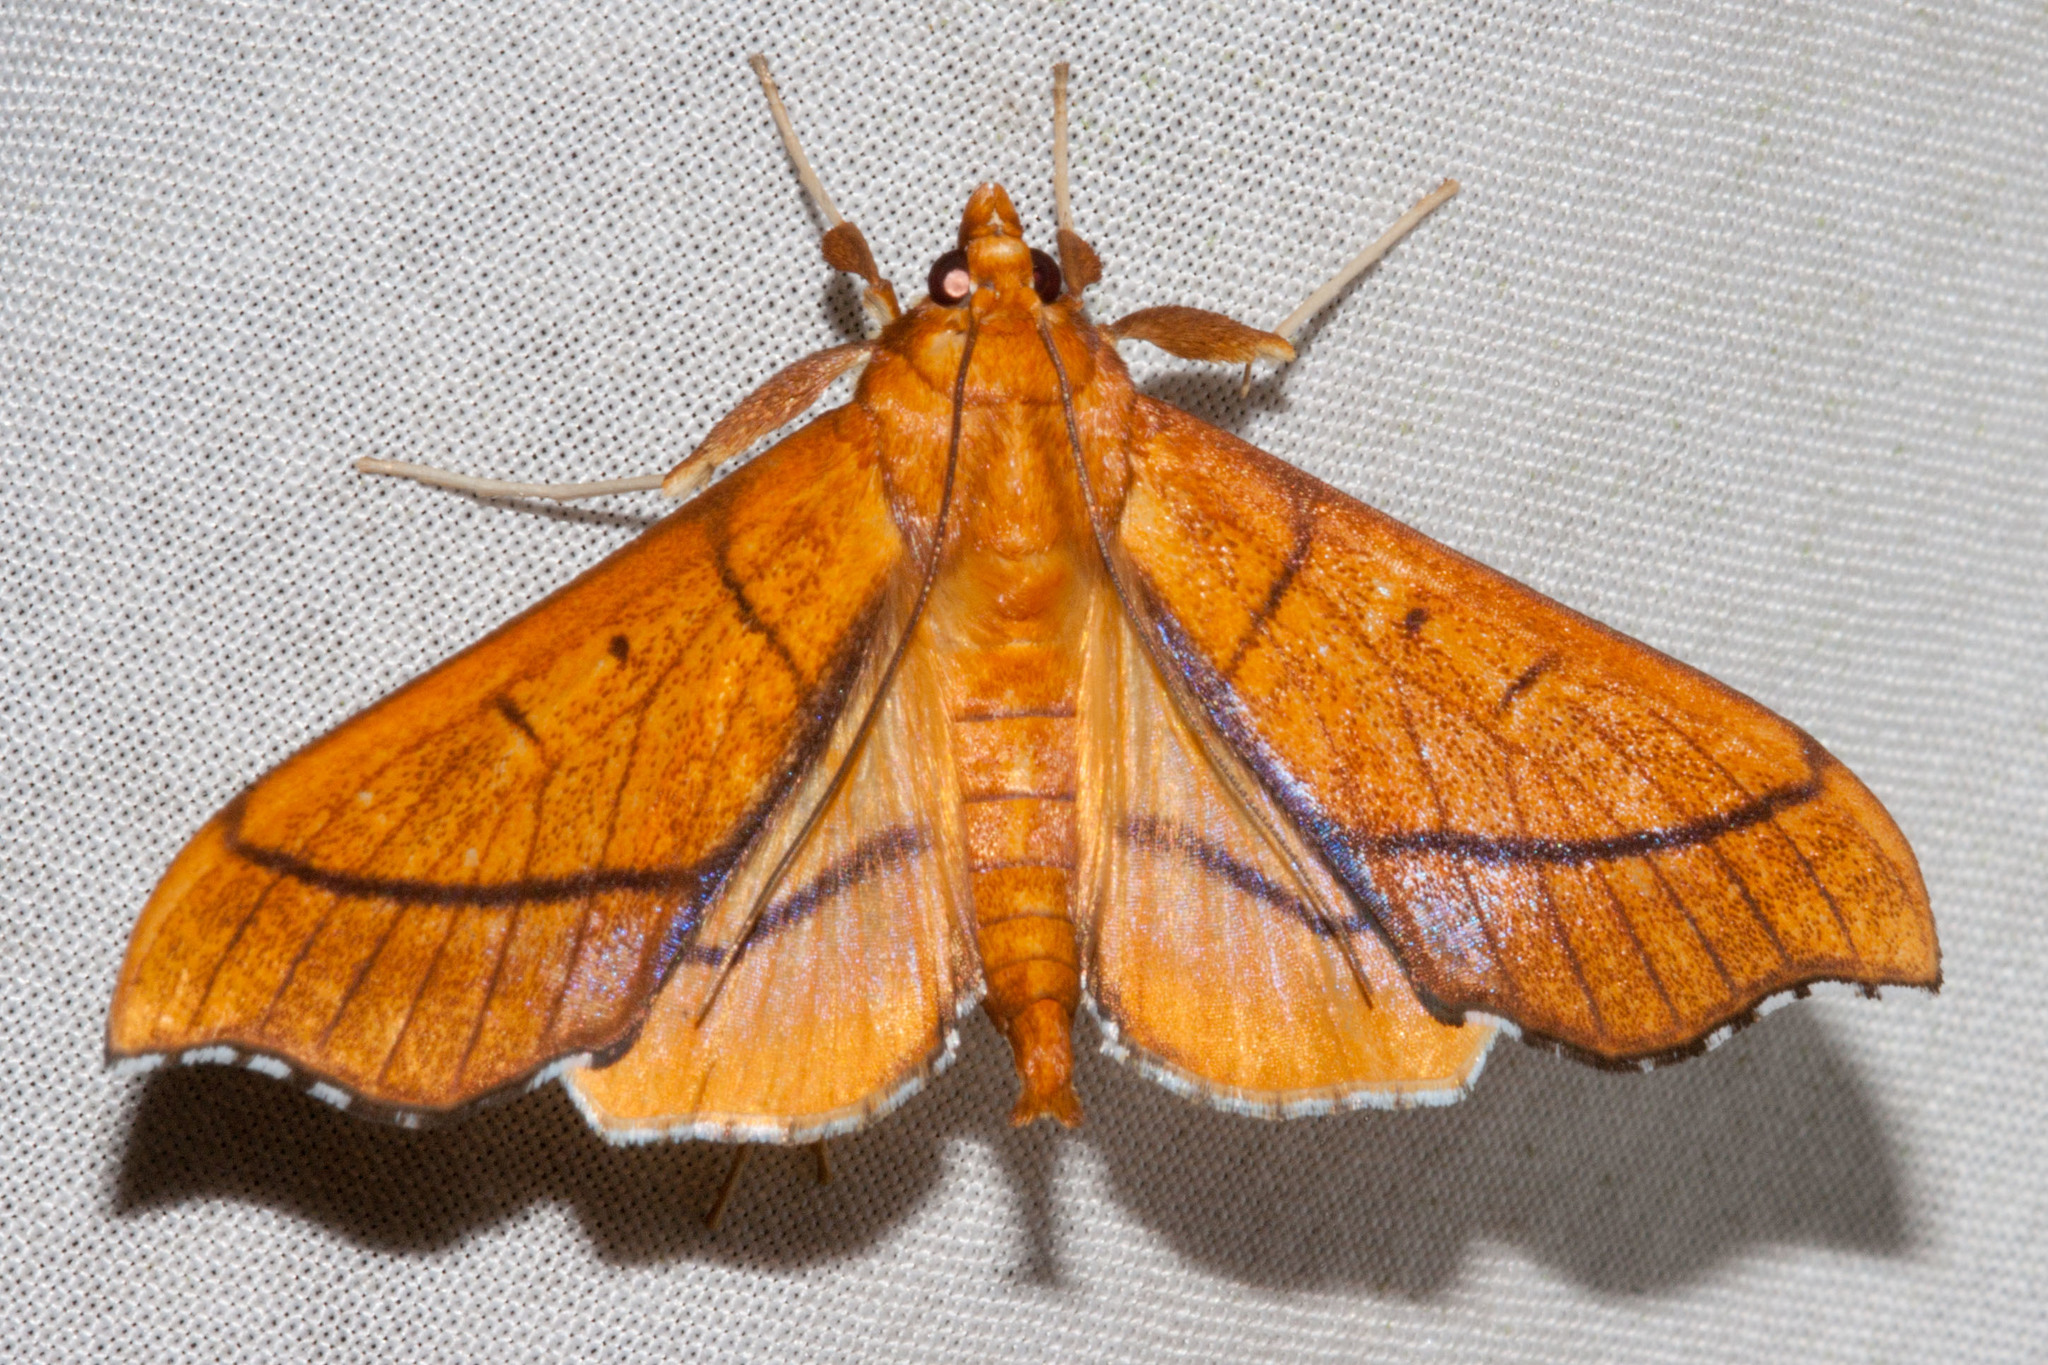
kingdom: Animalia
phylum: Arthropoda
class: Insecta
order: Lepidoptera
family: Crambidae
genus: Anarmodia
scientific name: Anarmodia arcadiusalis
